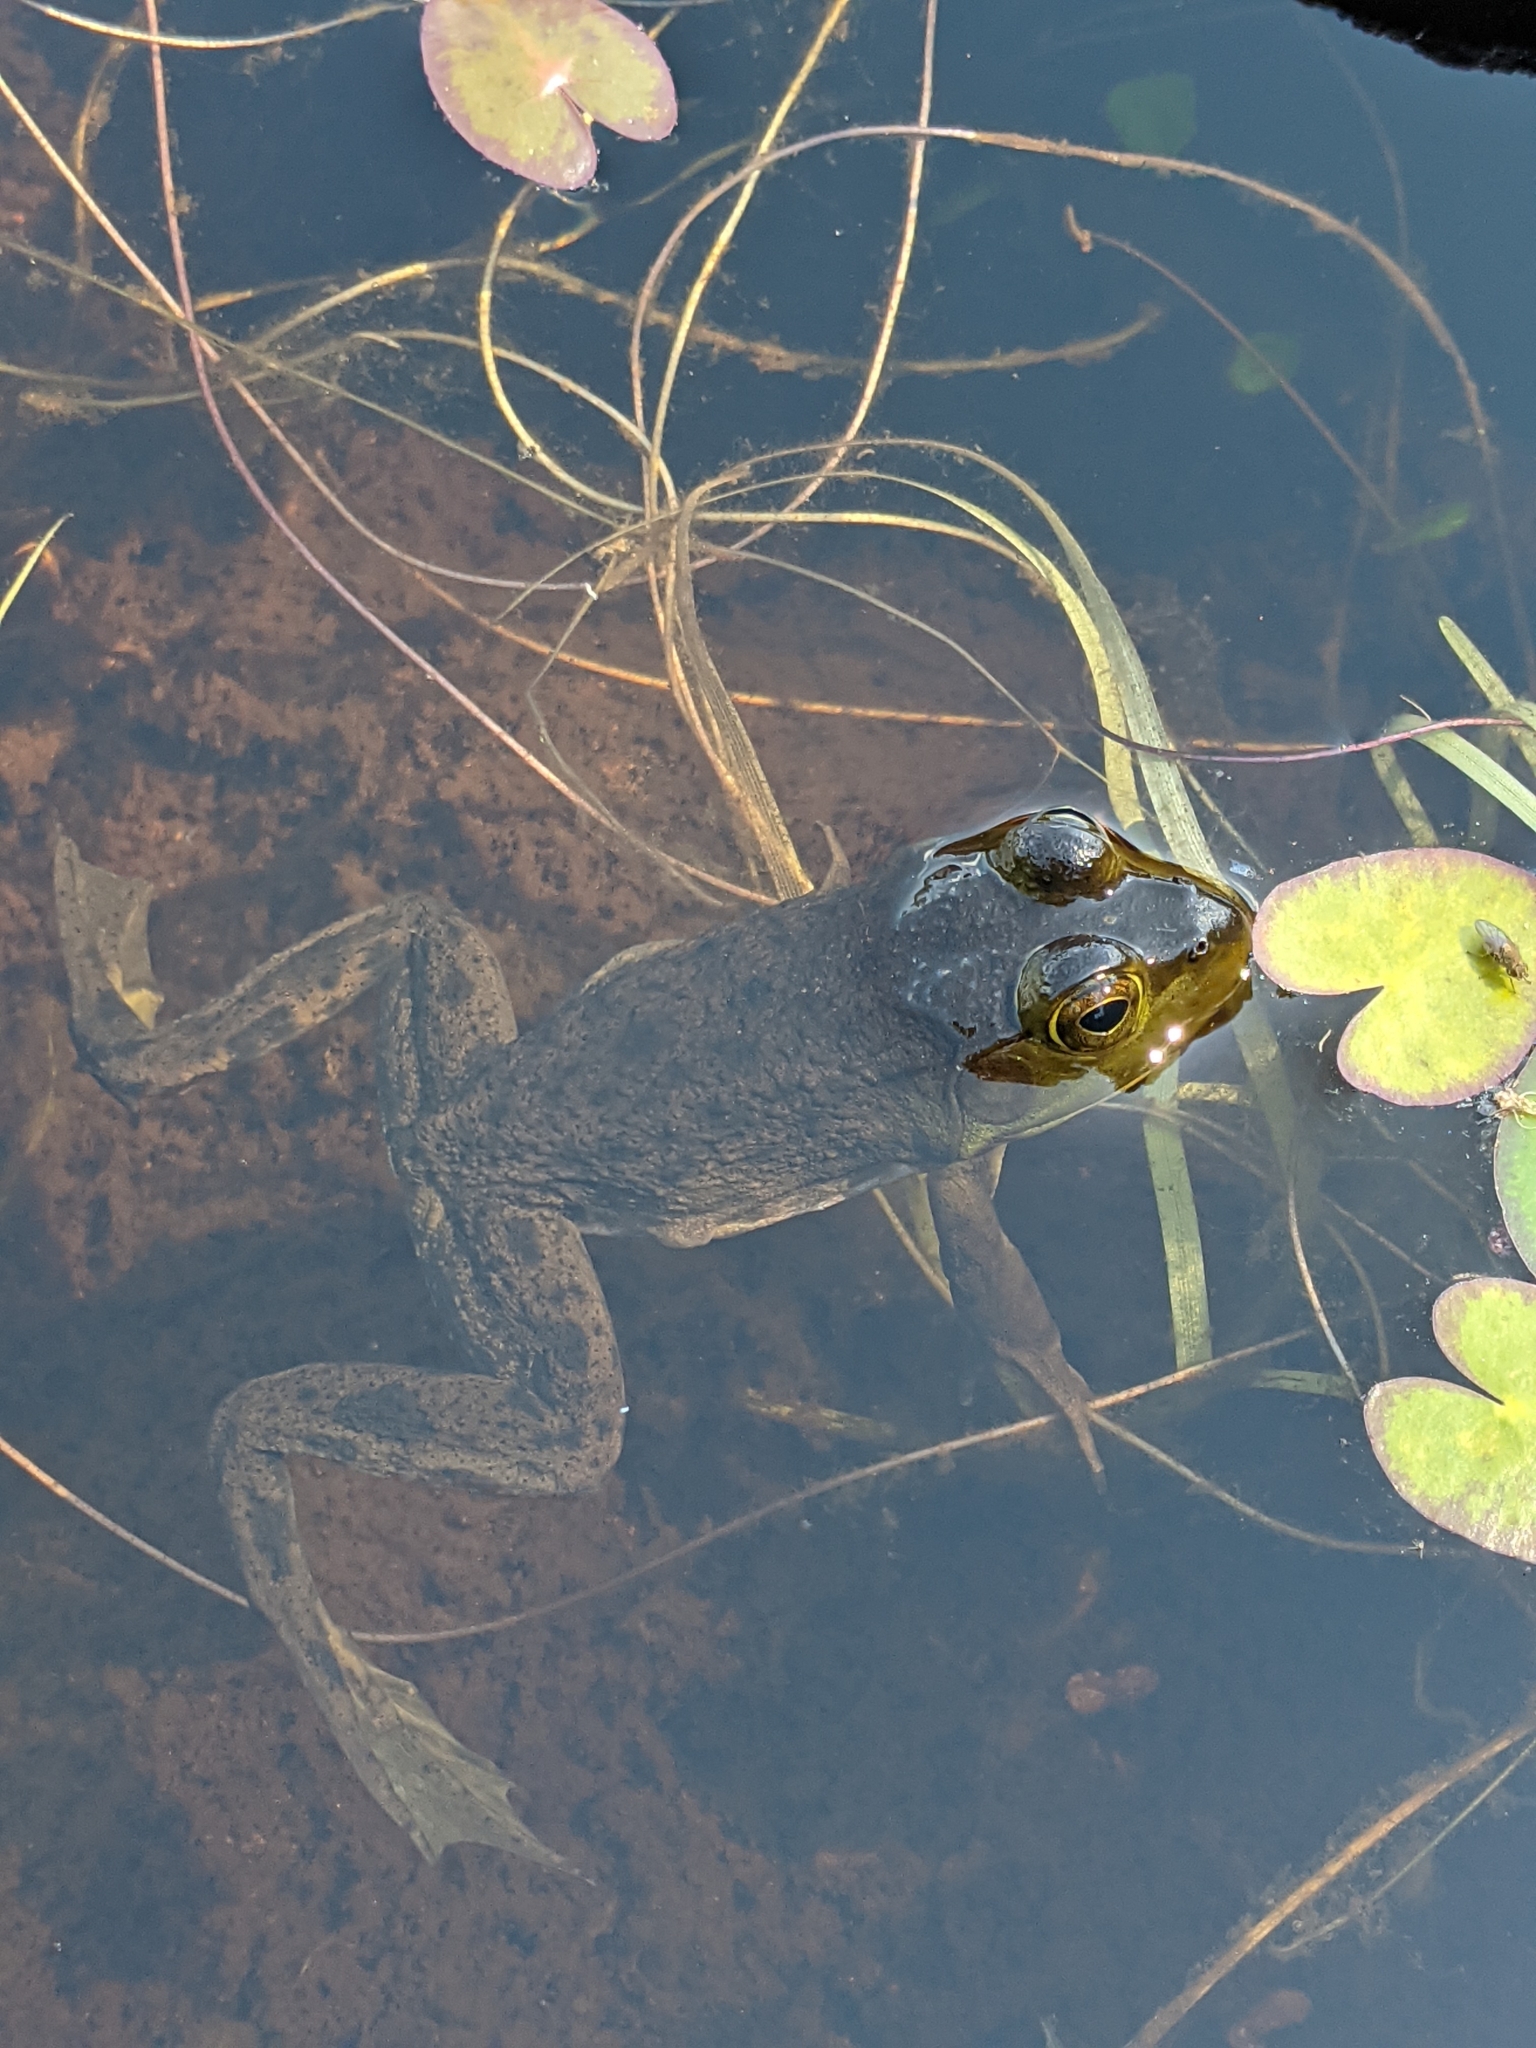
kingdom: Animalia
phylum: Chordata
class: Amphibia
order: Anura
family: Ranidae
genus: Lithobates
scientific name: Lithobates catesbeianus
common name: American bullfrog
